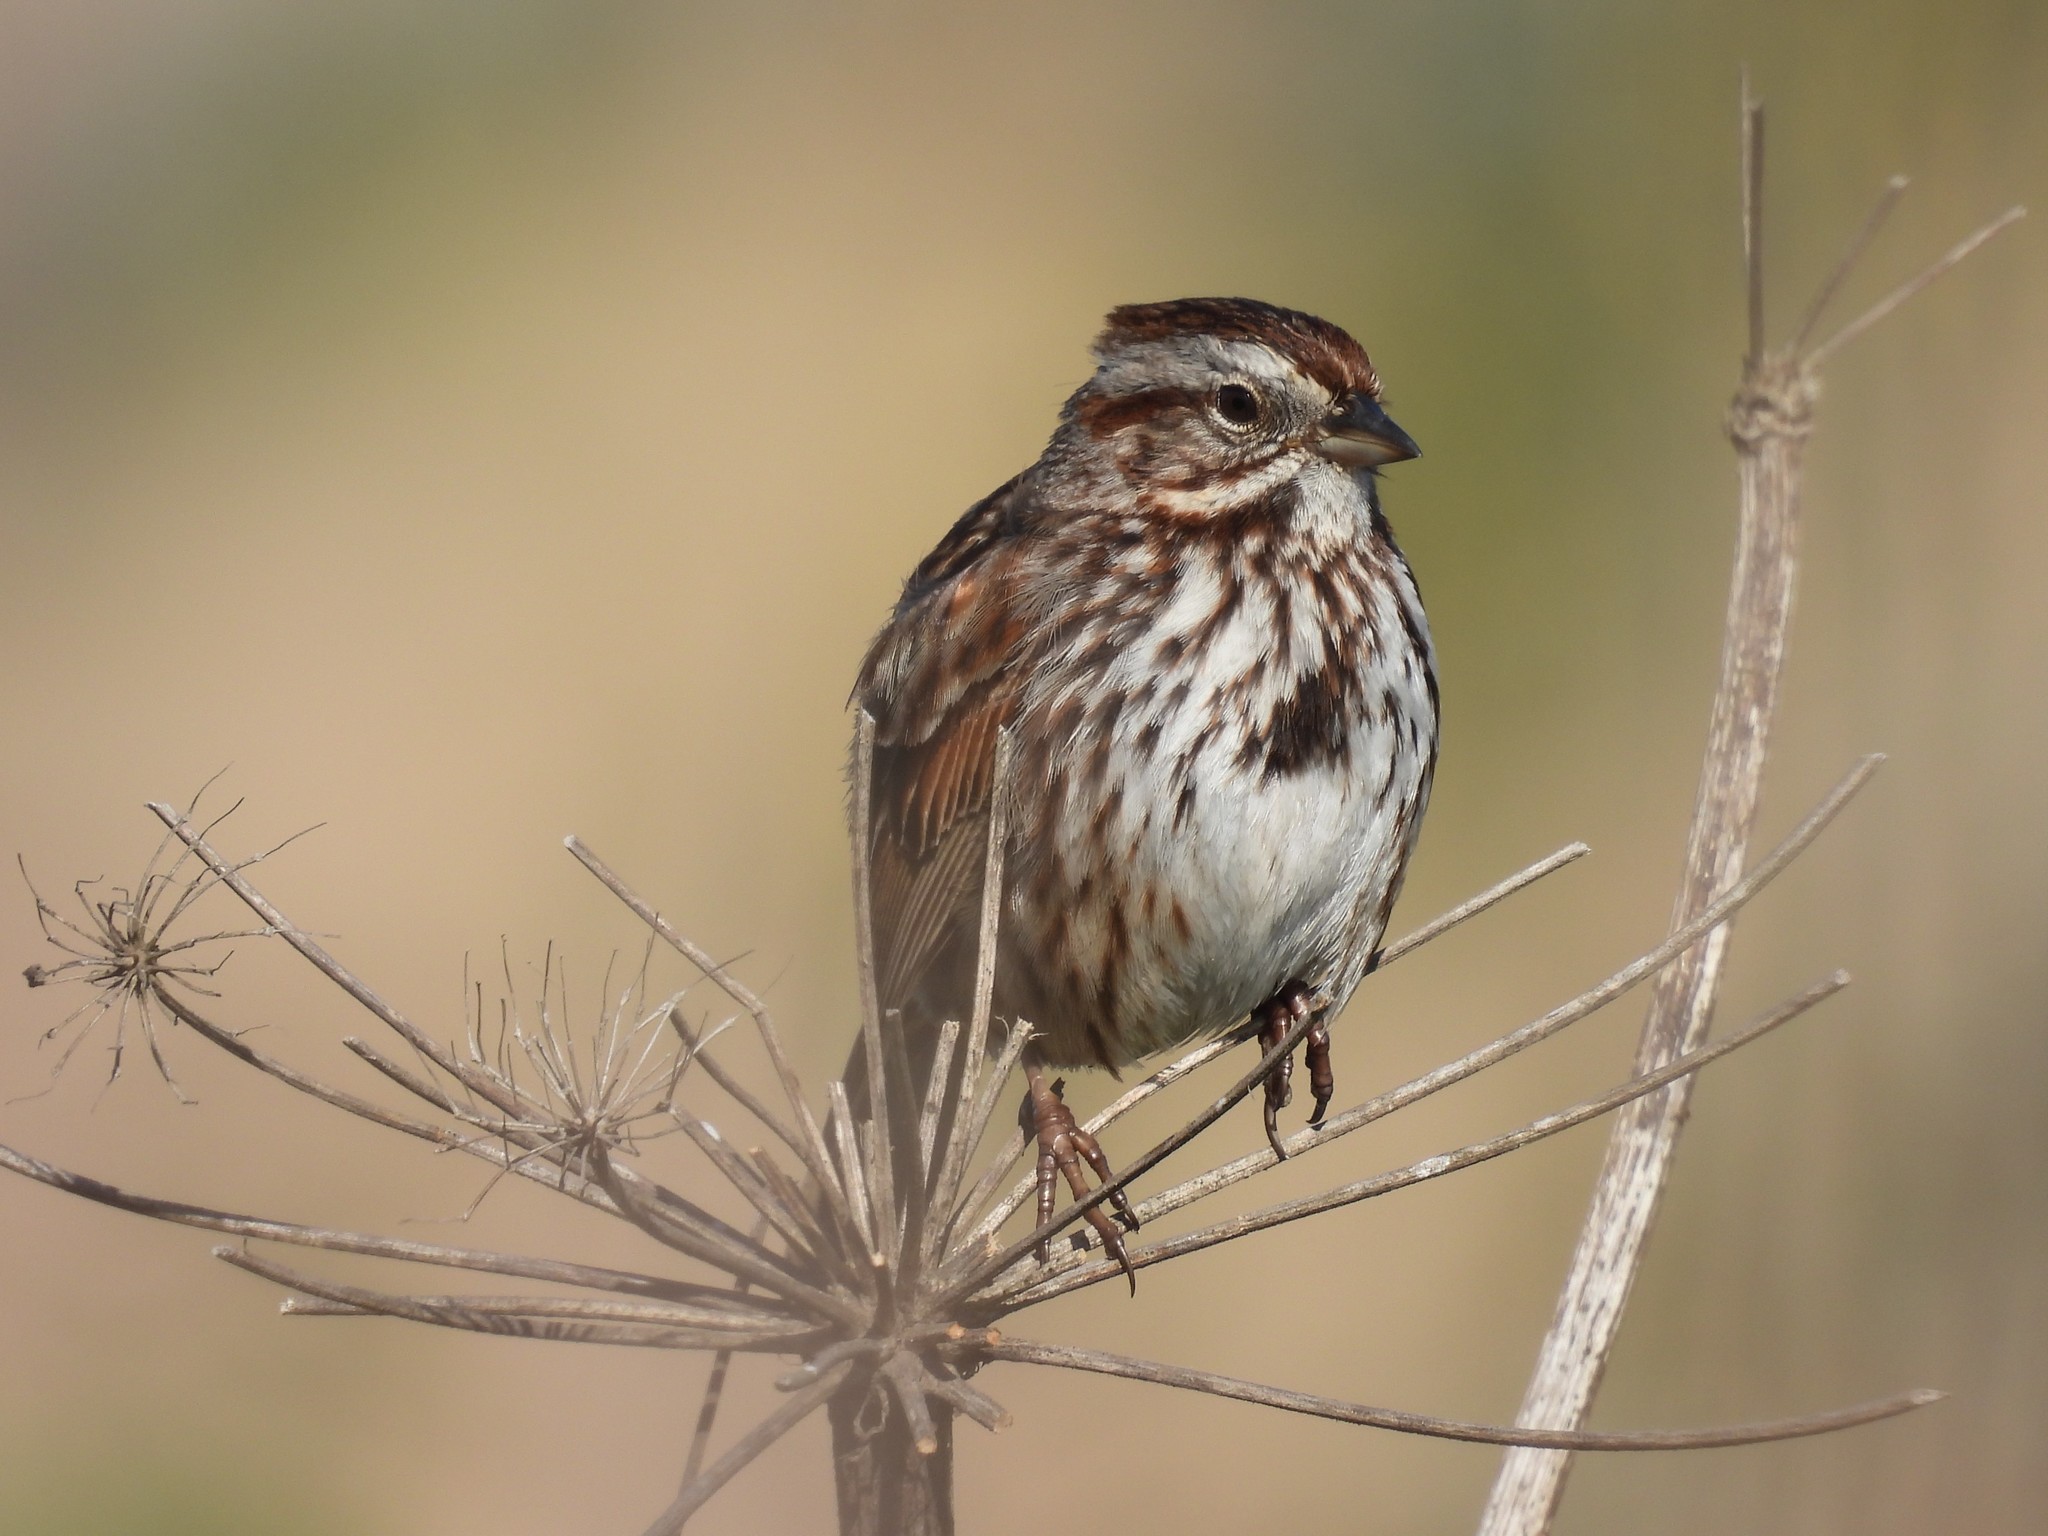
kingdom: Animalia
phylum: Chordata
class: Aves
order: Passeriformes
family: Passerellidae
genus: Melospiza
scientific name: Melospiza melodia
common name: Song sparrow
